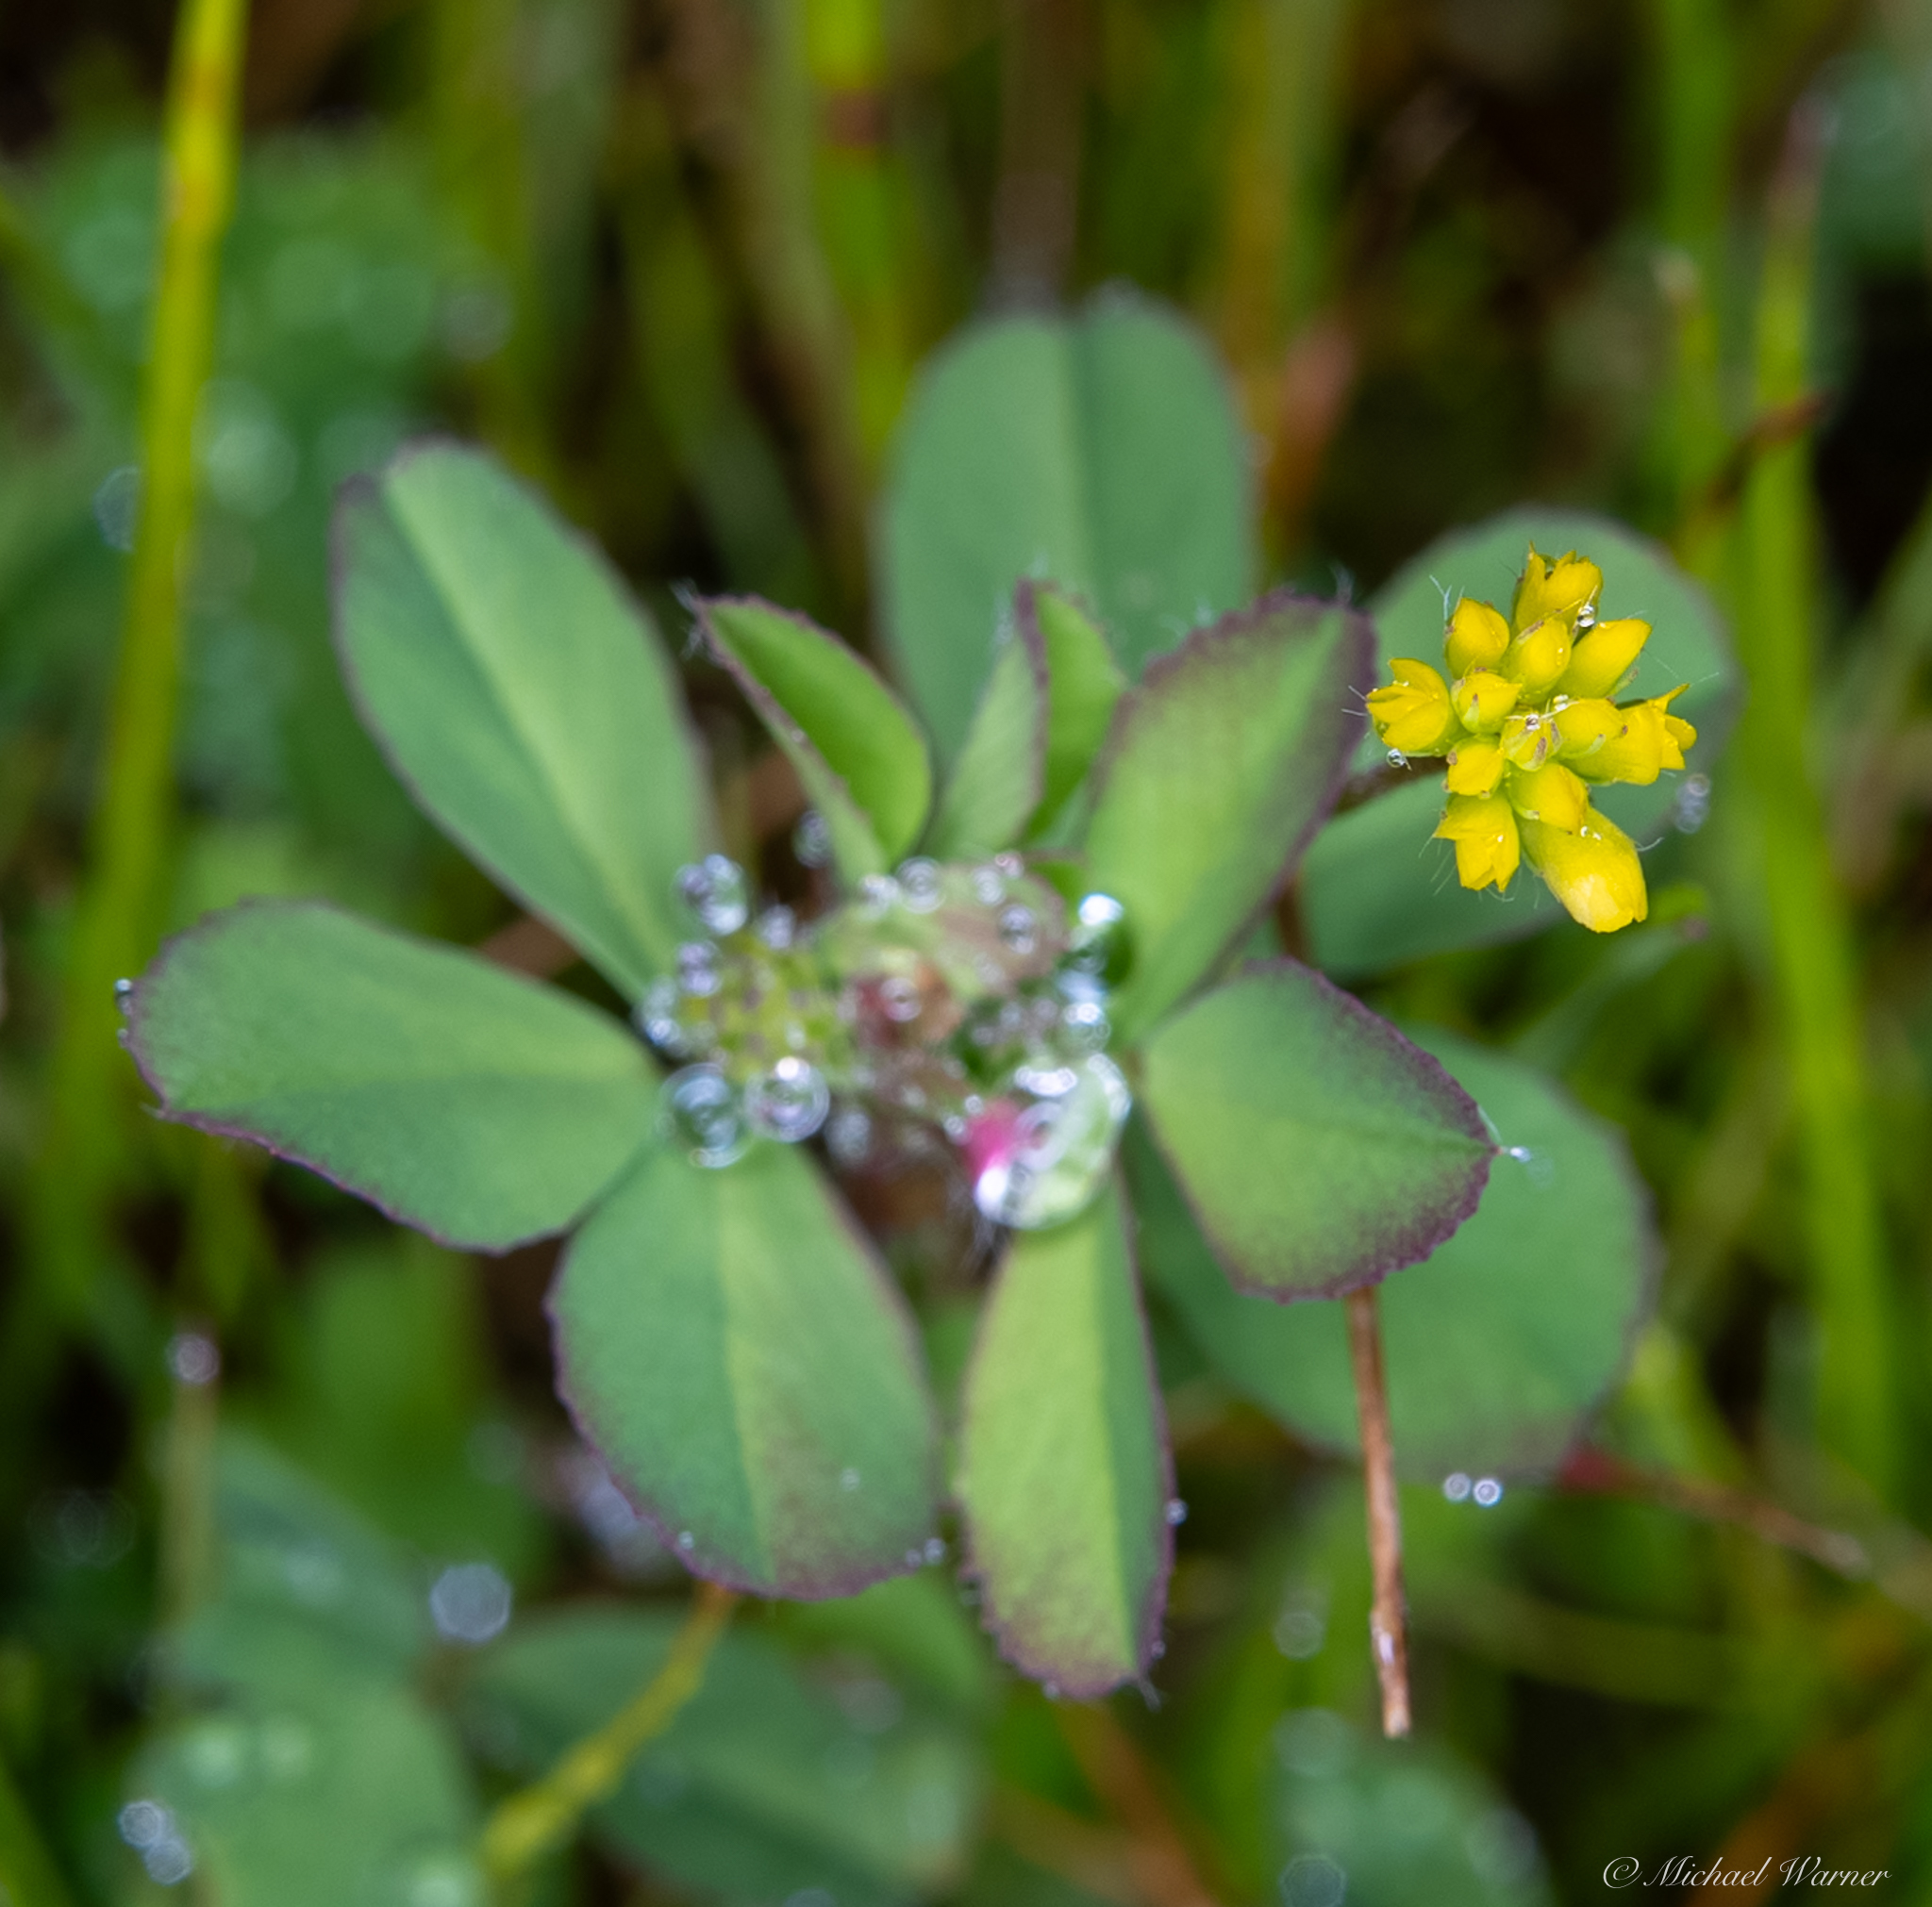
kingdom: Plantae
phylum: Tracheophyta
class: Magnoliopsida
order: Fabales
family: Fabaceae
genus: Trifolium
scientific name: Trifolium dubium
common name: Suckling clover
